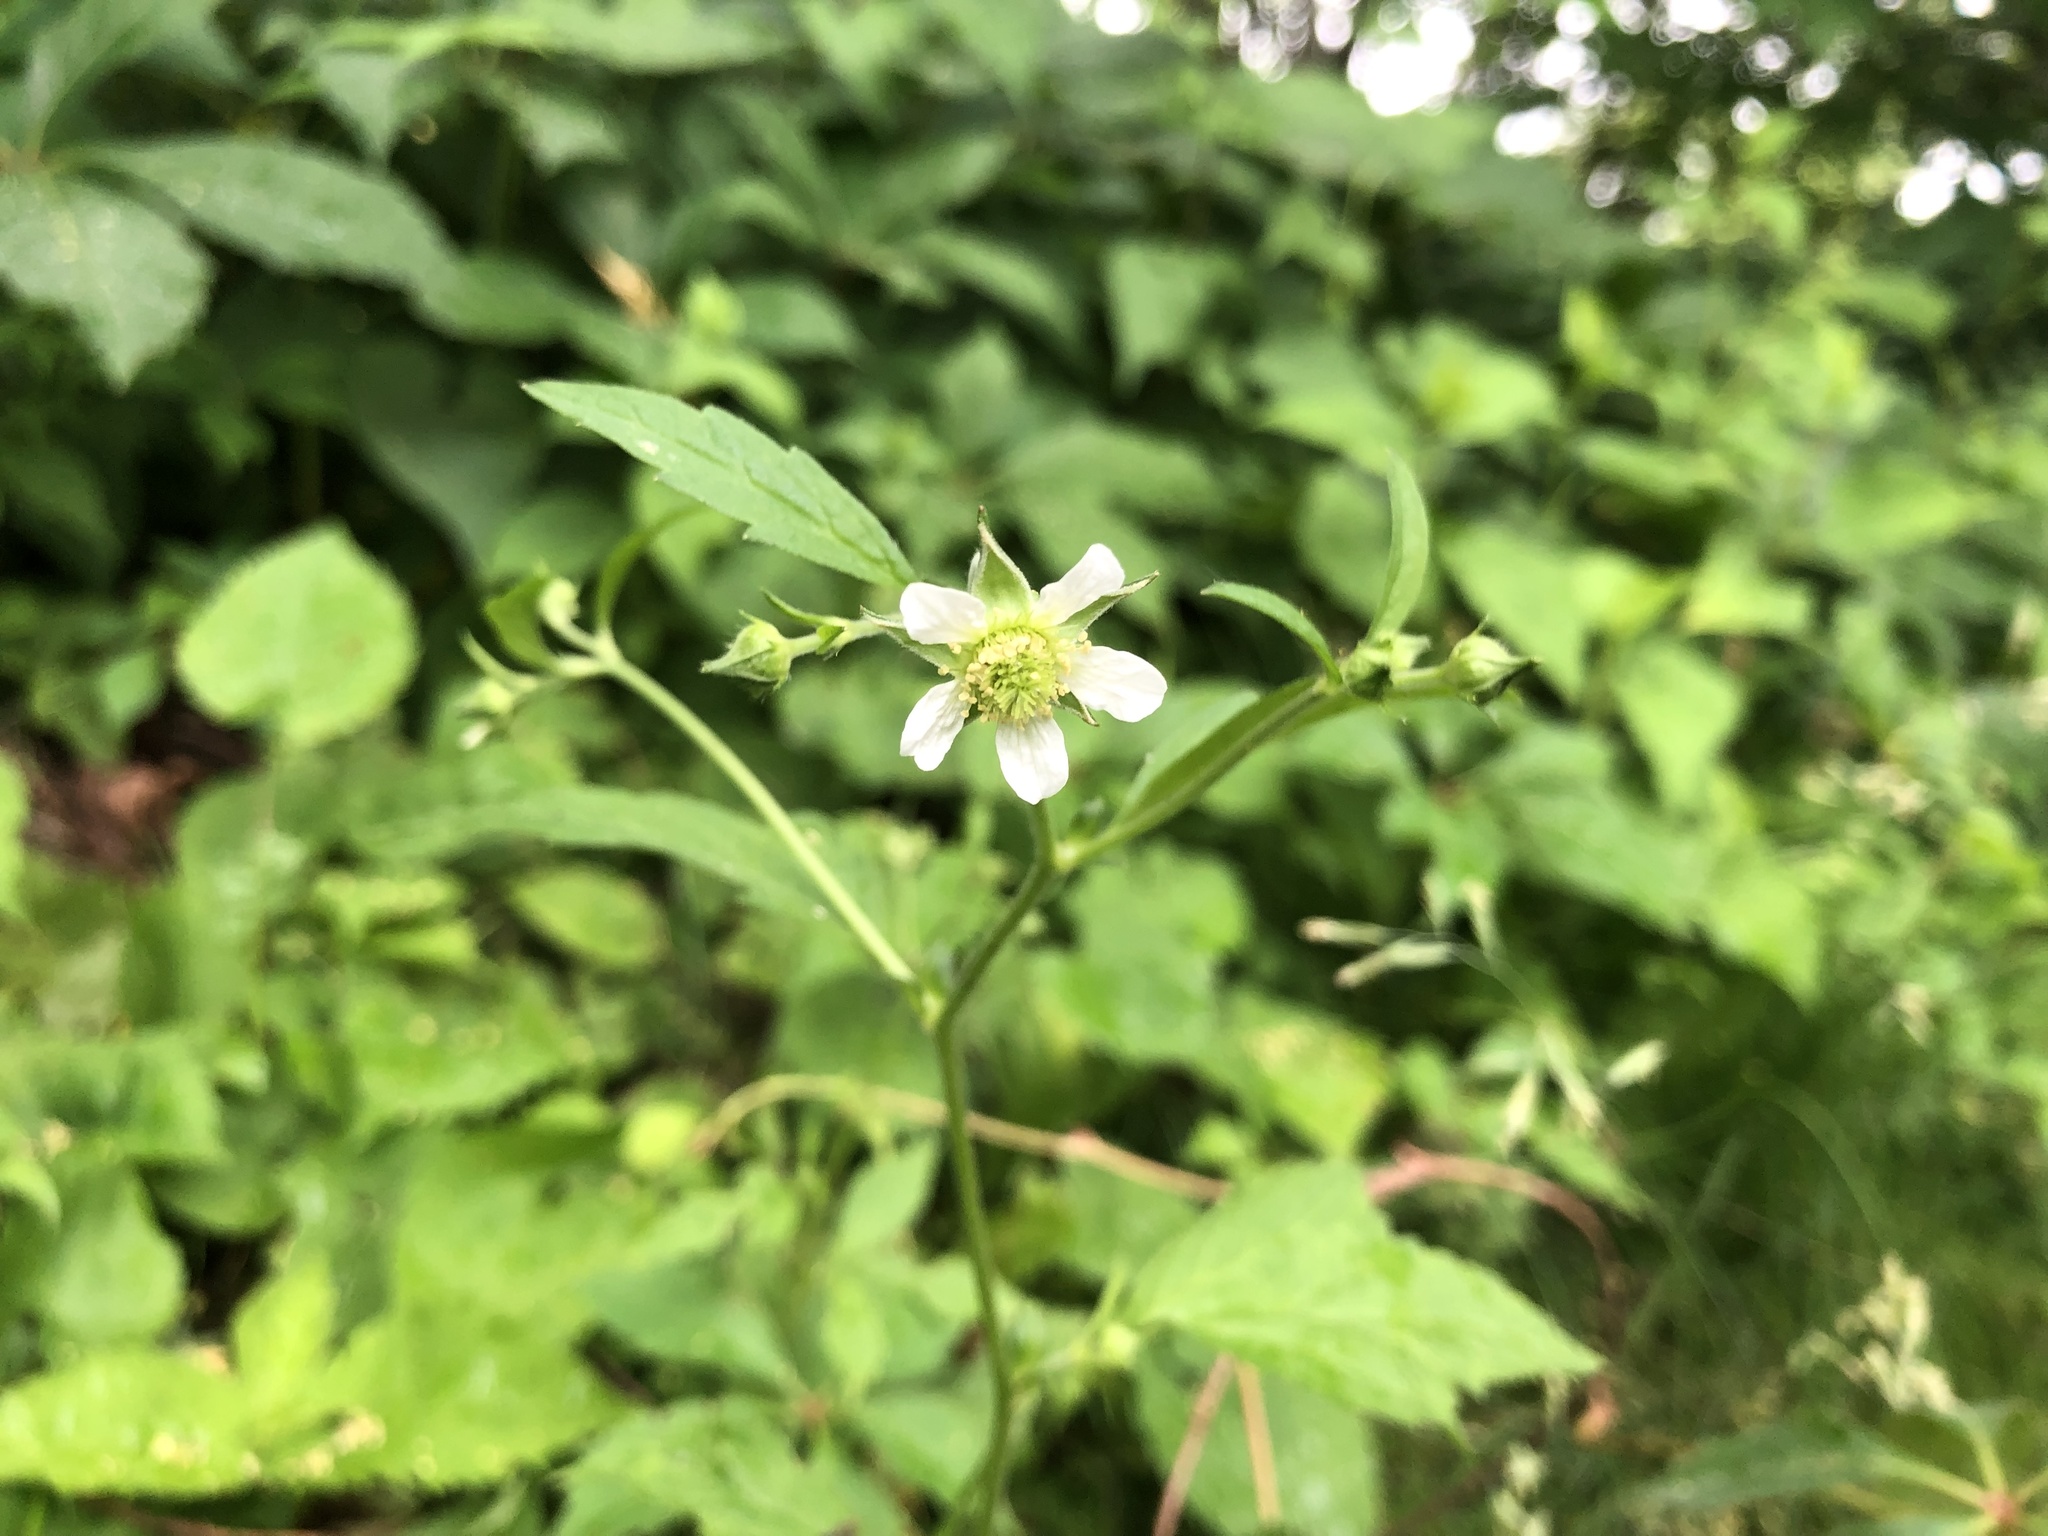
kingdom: Plantae
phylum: Tracheophyta
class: Magnoliopsida
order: Rosales
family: Rosaceae
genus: Geum
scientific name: Geum canadense
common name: White avens
